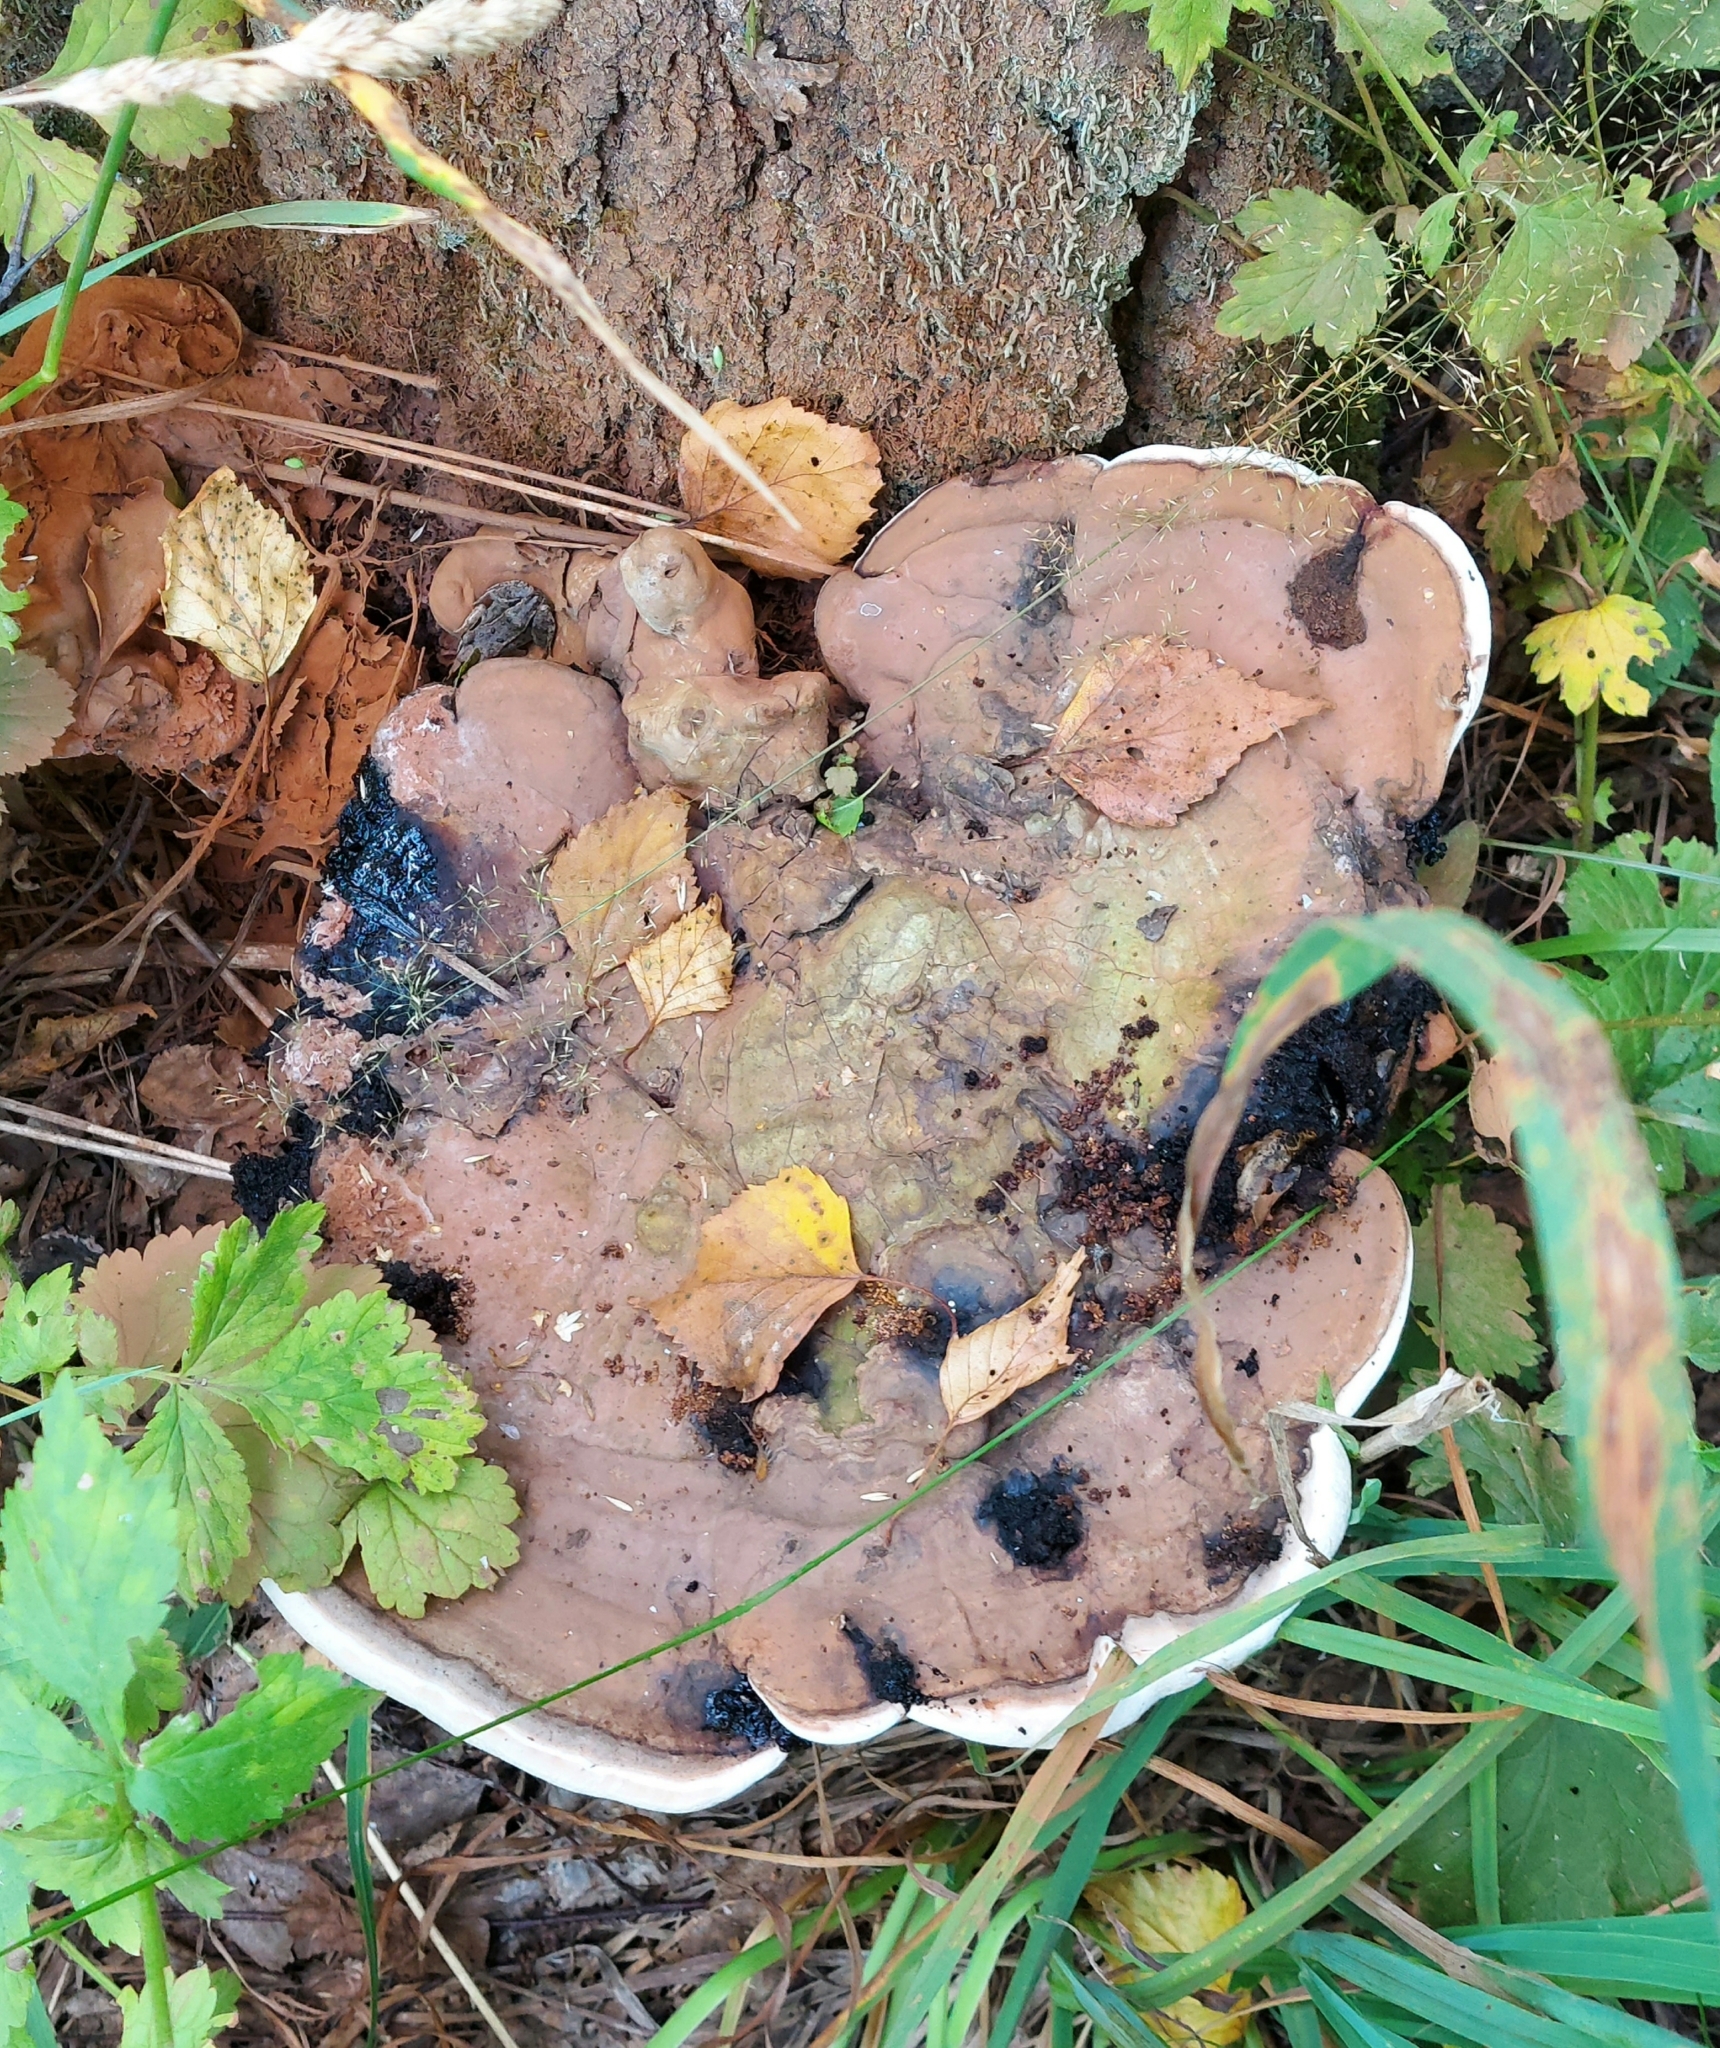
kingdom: Fungi
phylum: Basidiomycota
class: Agaricomycetes
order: Polyporales
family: Polyporaceae
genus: Ganoderma
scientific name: Ganoderma applanatum
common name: Artist's bracket
